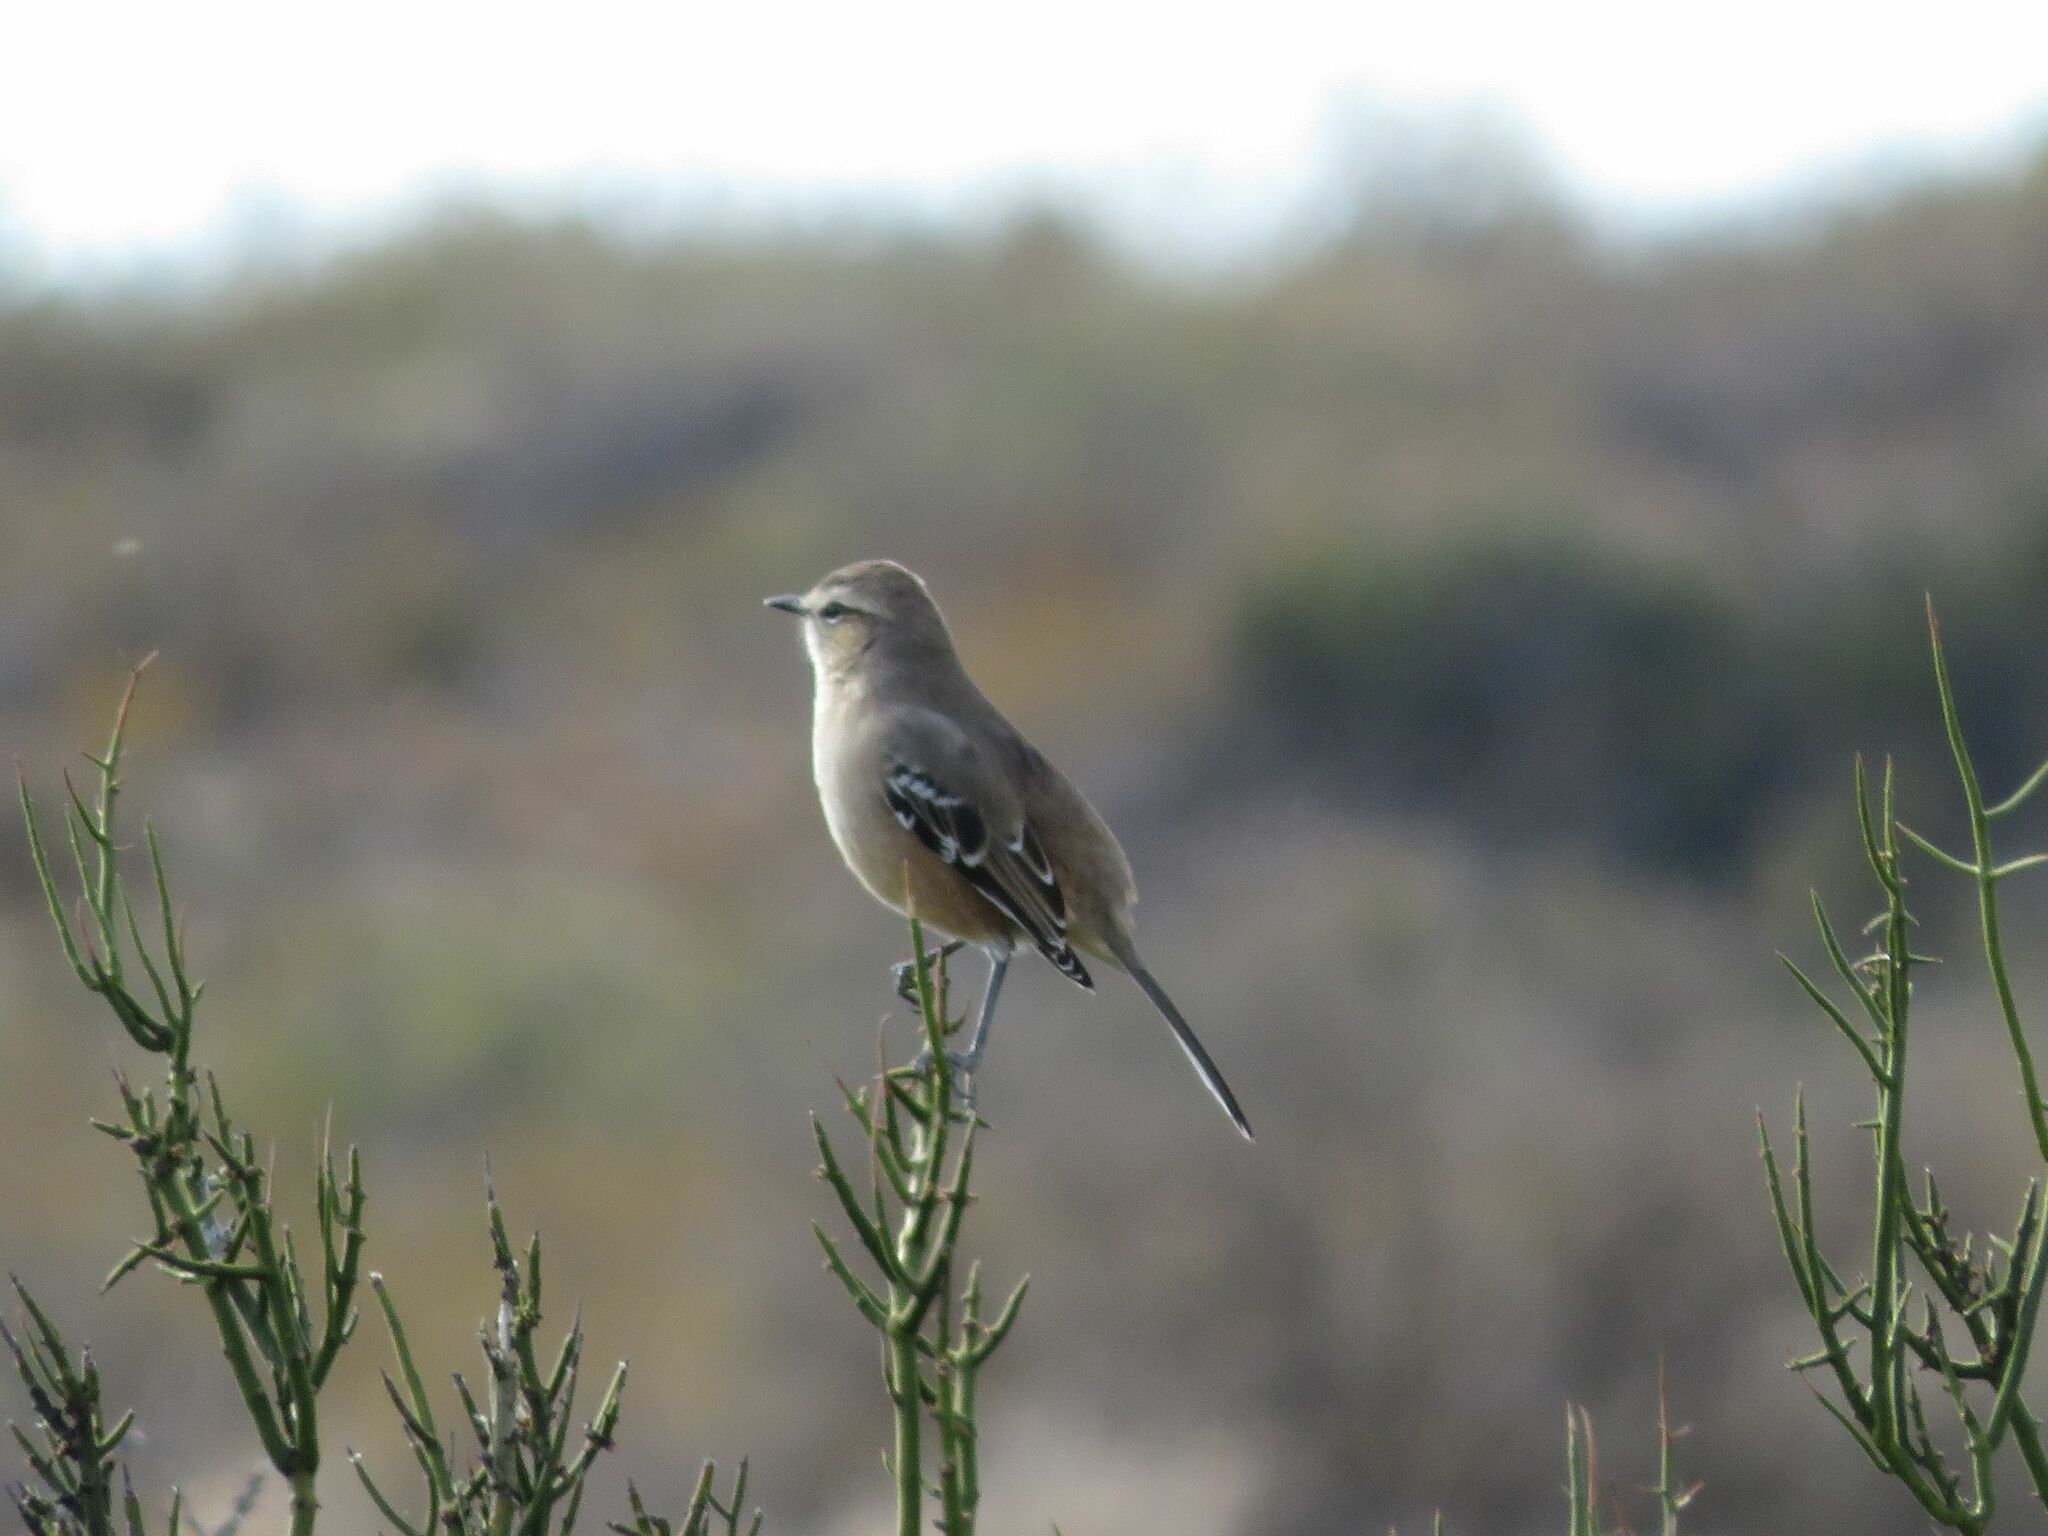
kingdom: Animalia
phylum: Chordata
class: Aves
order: Passeriformes
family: Mimidae
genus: Mimus
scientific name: Mimus patagonicus
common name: Patagonian mockingbird
